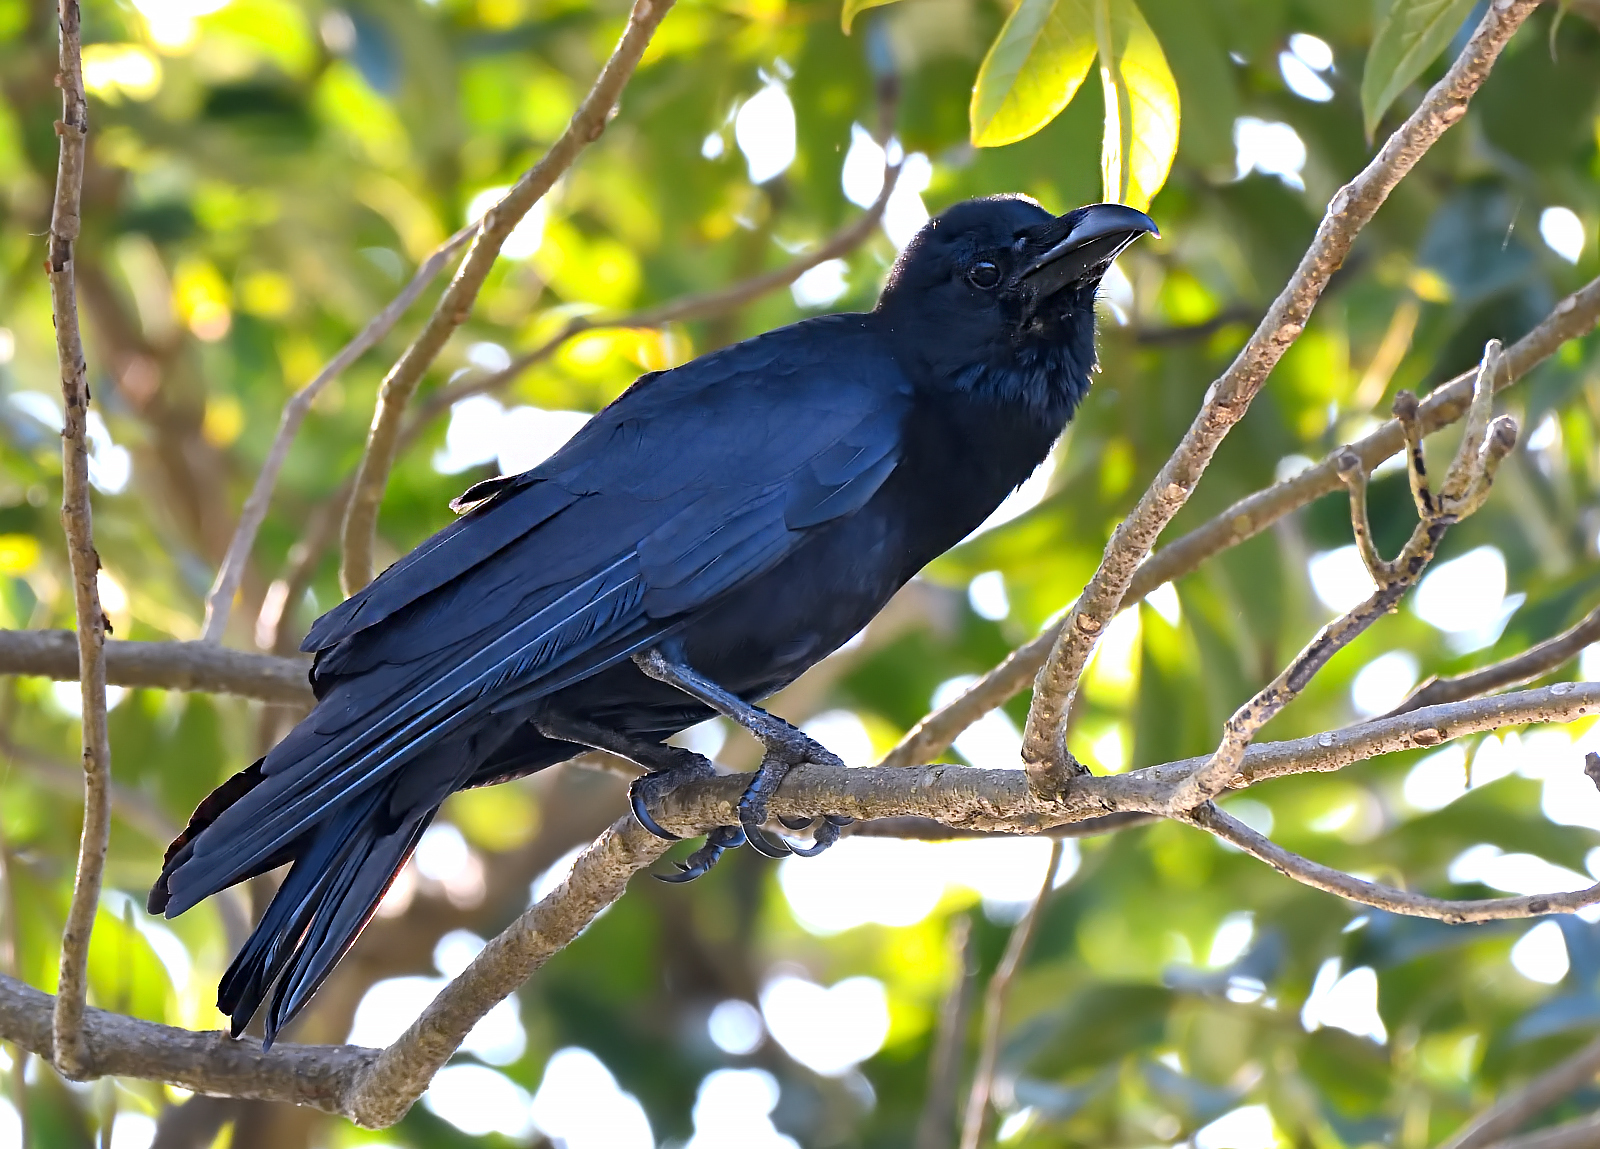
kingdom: Animalia
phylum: Chordata
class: Aves
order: Passeriformes
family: Corvidae
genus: Corvus
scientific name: Corvus macrorhynchos
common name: Large-billed crow
